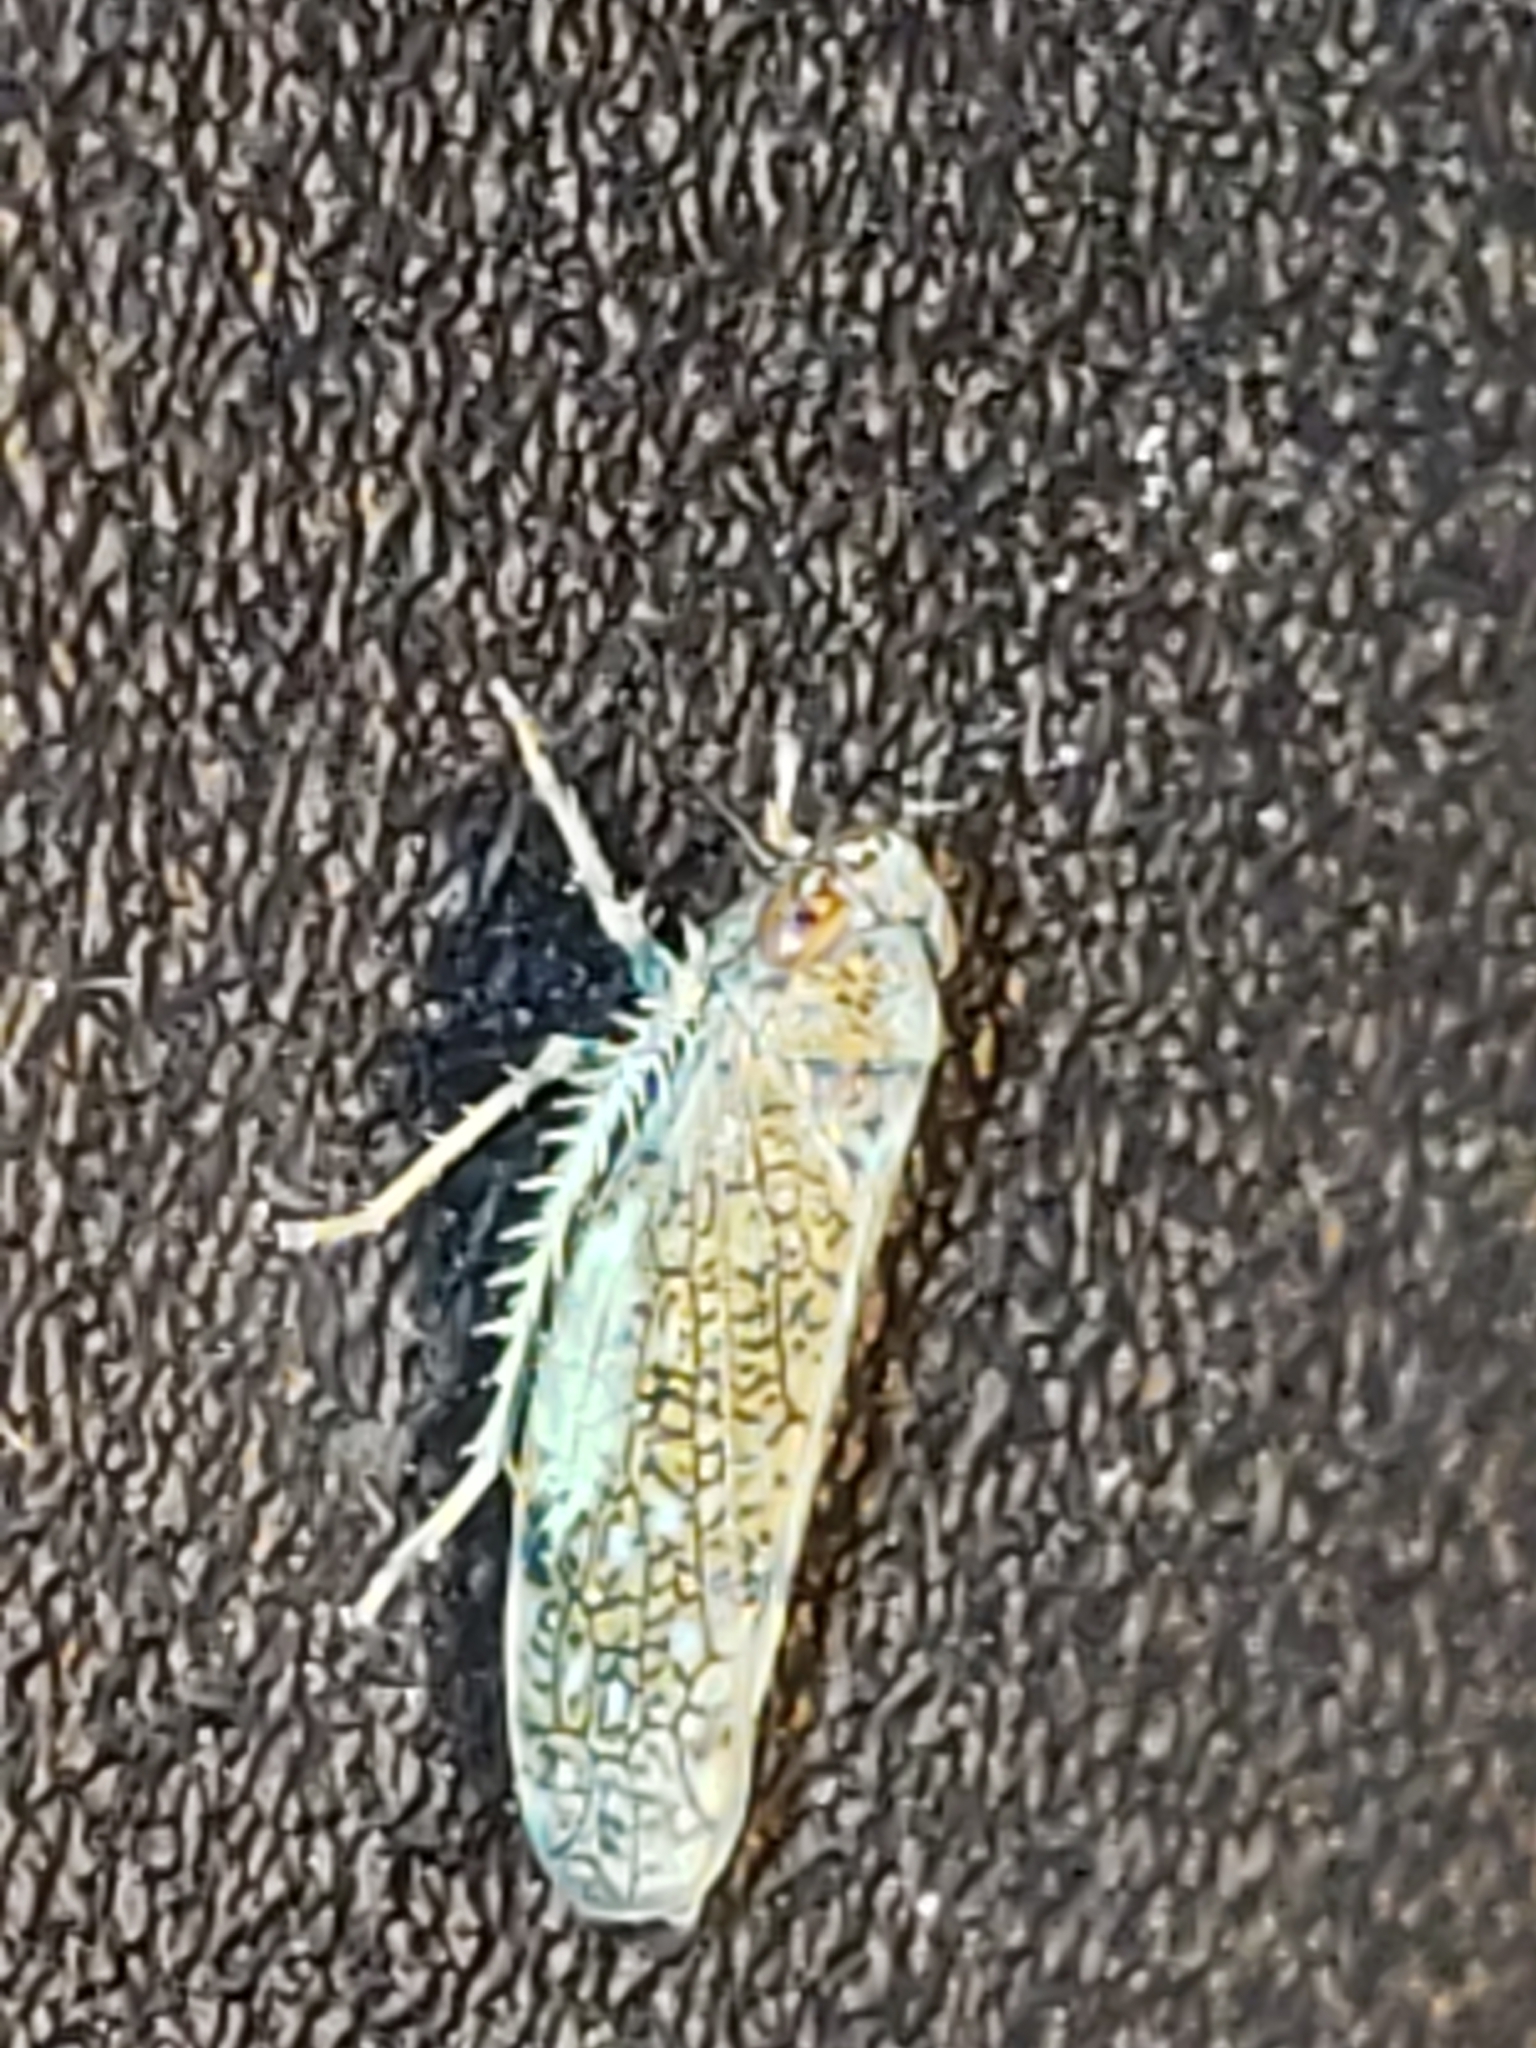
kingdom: Animalia
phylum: Arthropoda
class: Insecta
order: Hemiptera
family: Cicadellidae
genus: Orientus
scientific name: Orientus ishidae
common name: Japanese leafhopper
